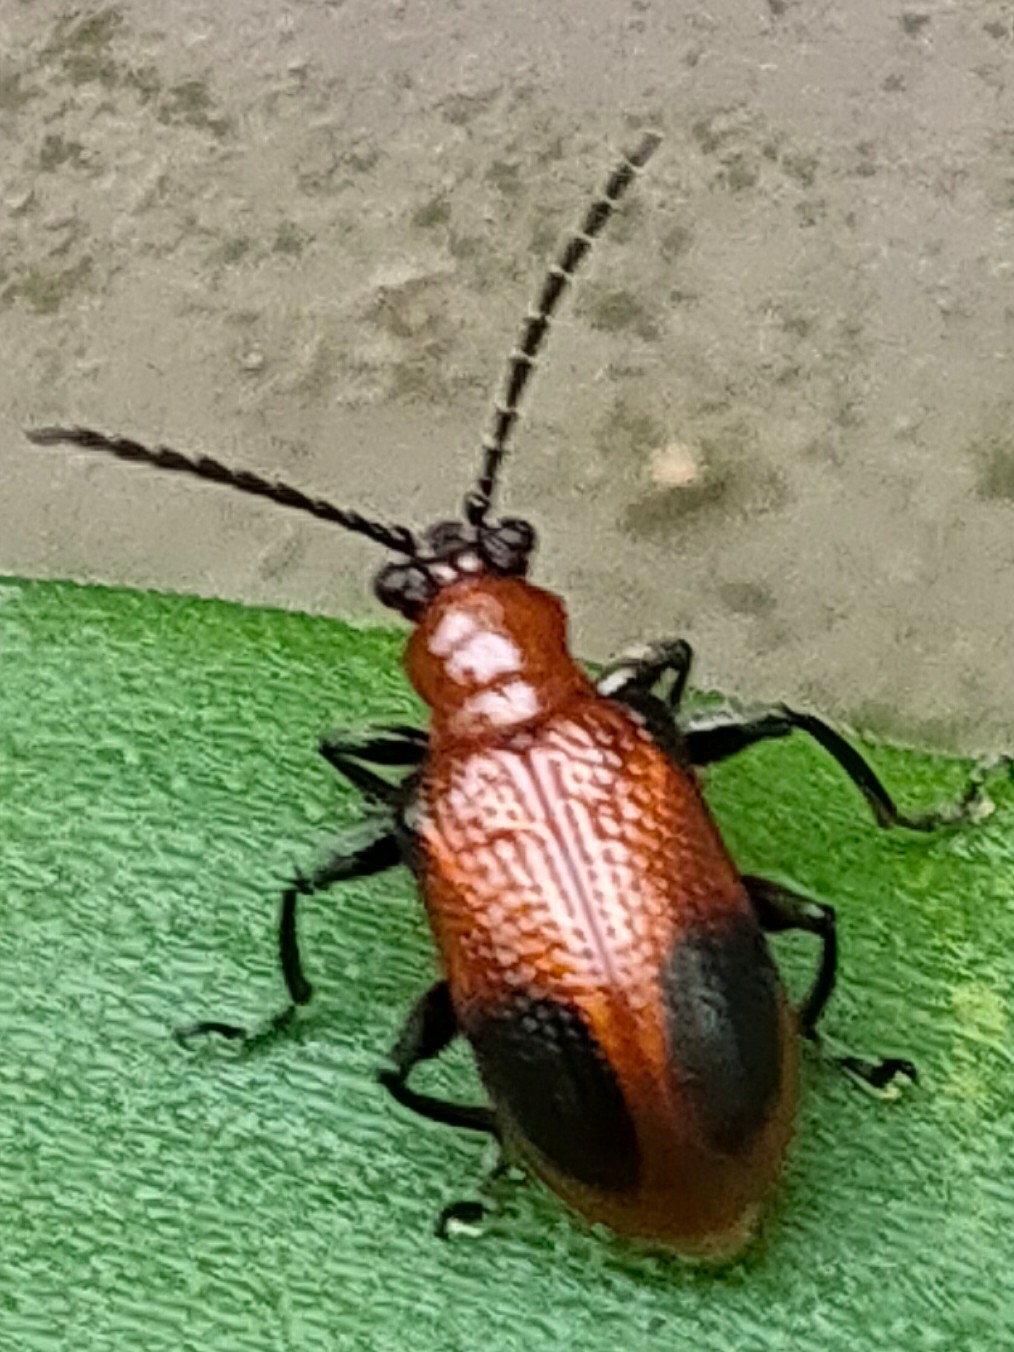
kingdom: Animalia
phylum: Arthropoda
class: Insecta
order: Coleoptera
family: Chrysomelidae
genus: Lema
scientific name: Lema diversa
